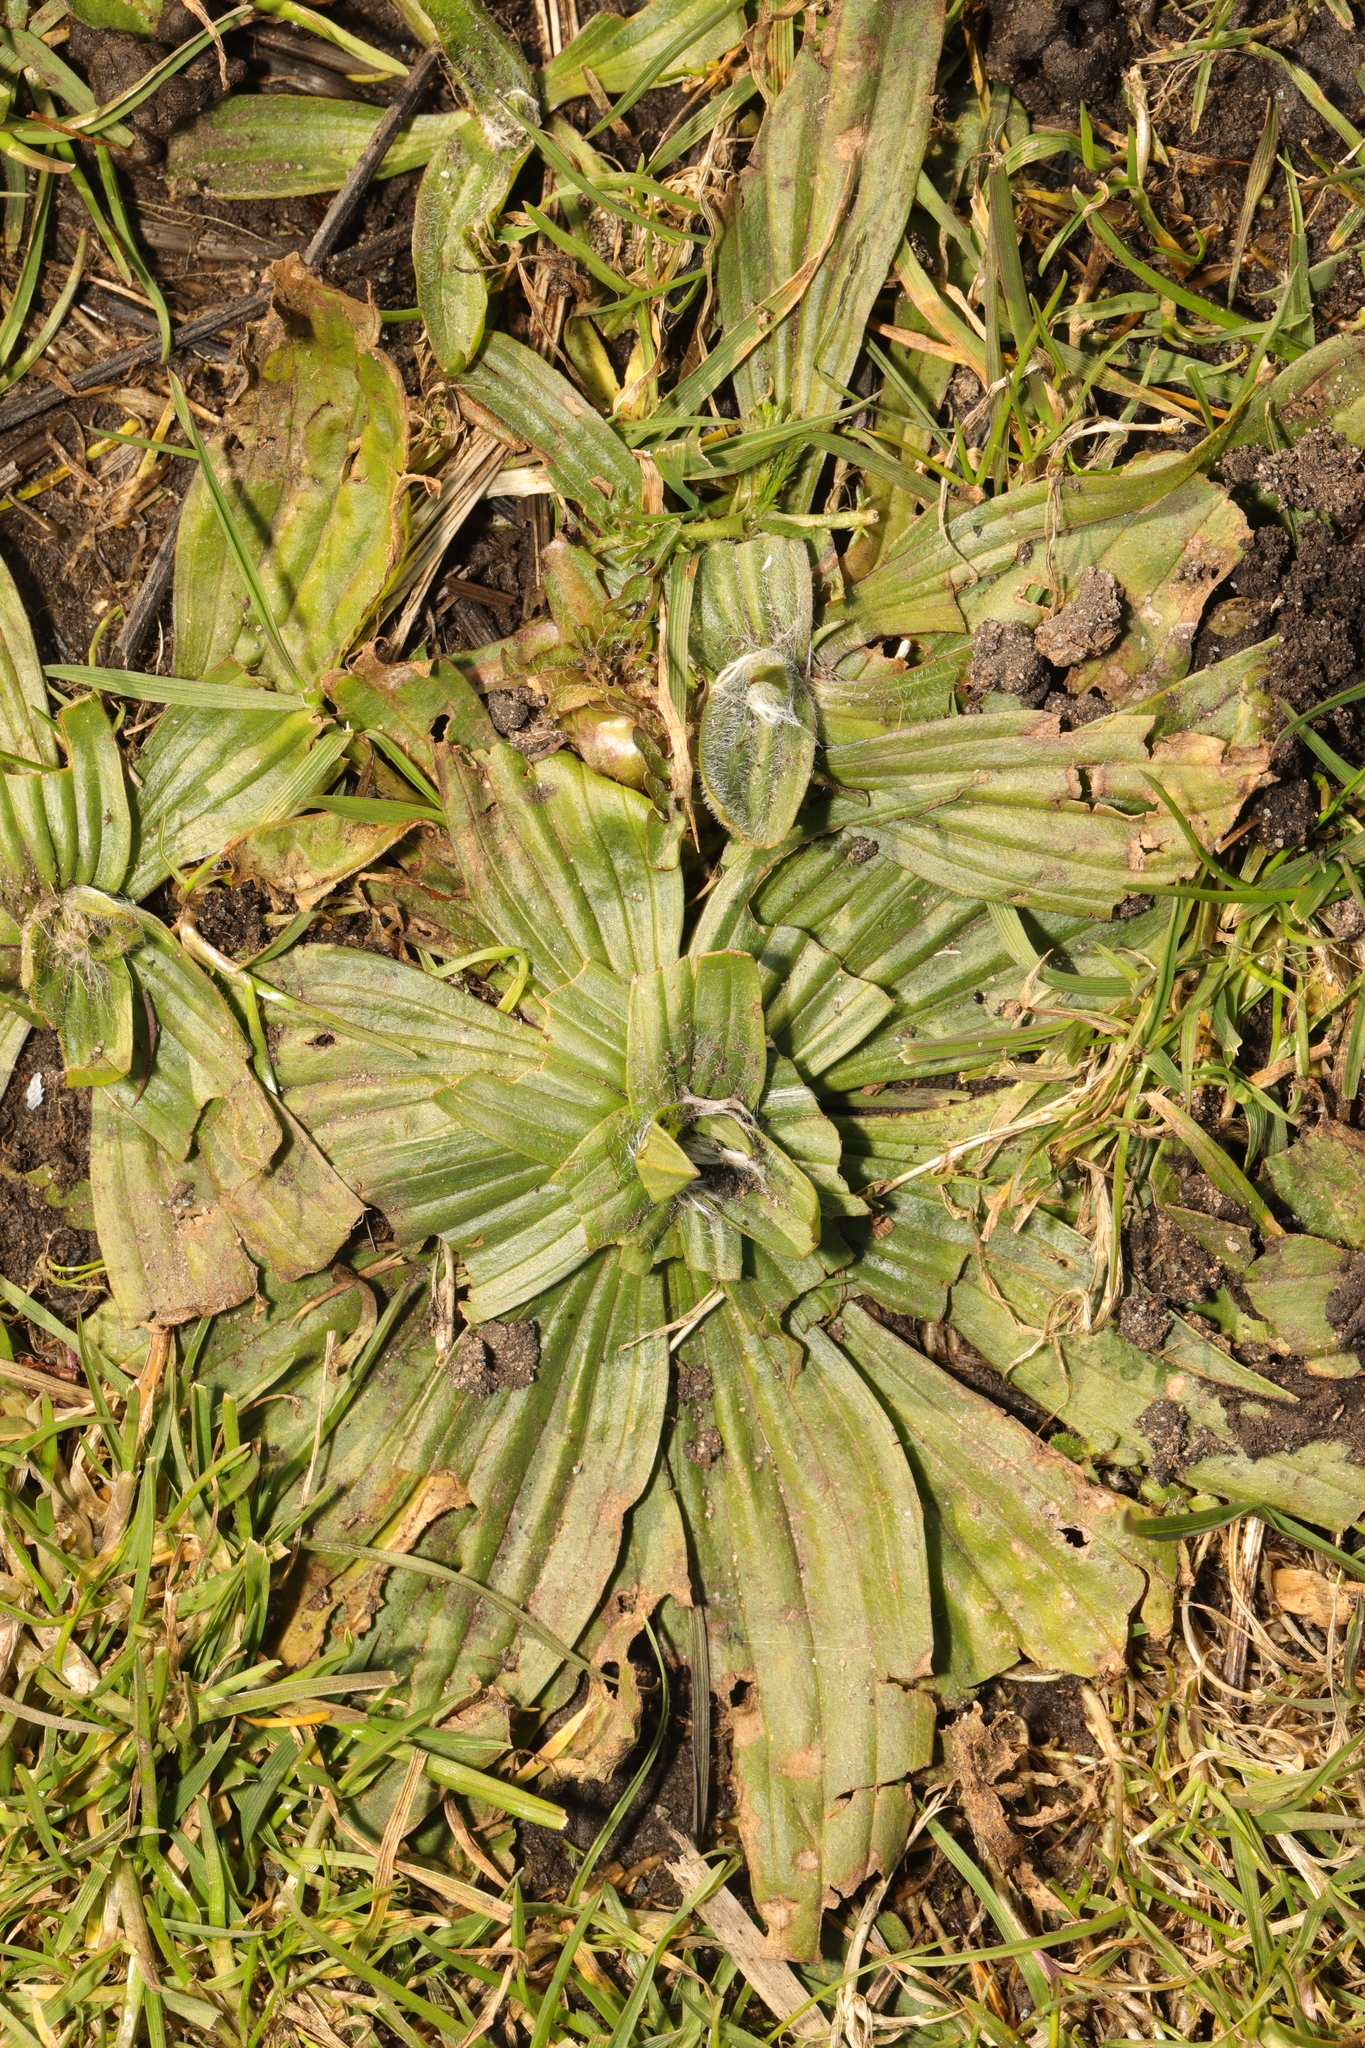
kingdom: Plantae
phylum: Tracheophyta
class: Magnoliopsida
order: Lamiales
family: Plantaginaceae
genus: Plantago
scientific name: Plantago media
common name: Hoary plantain
